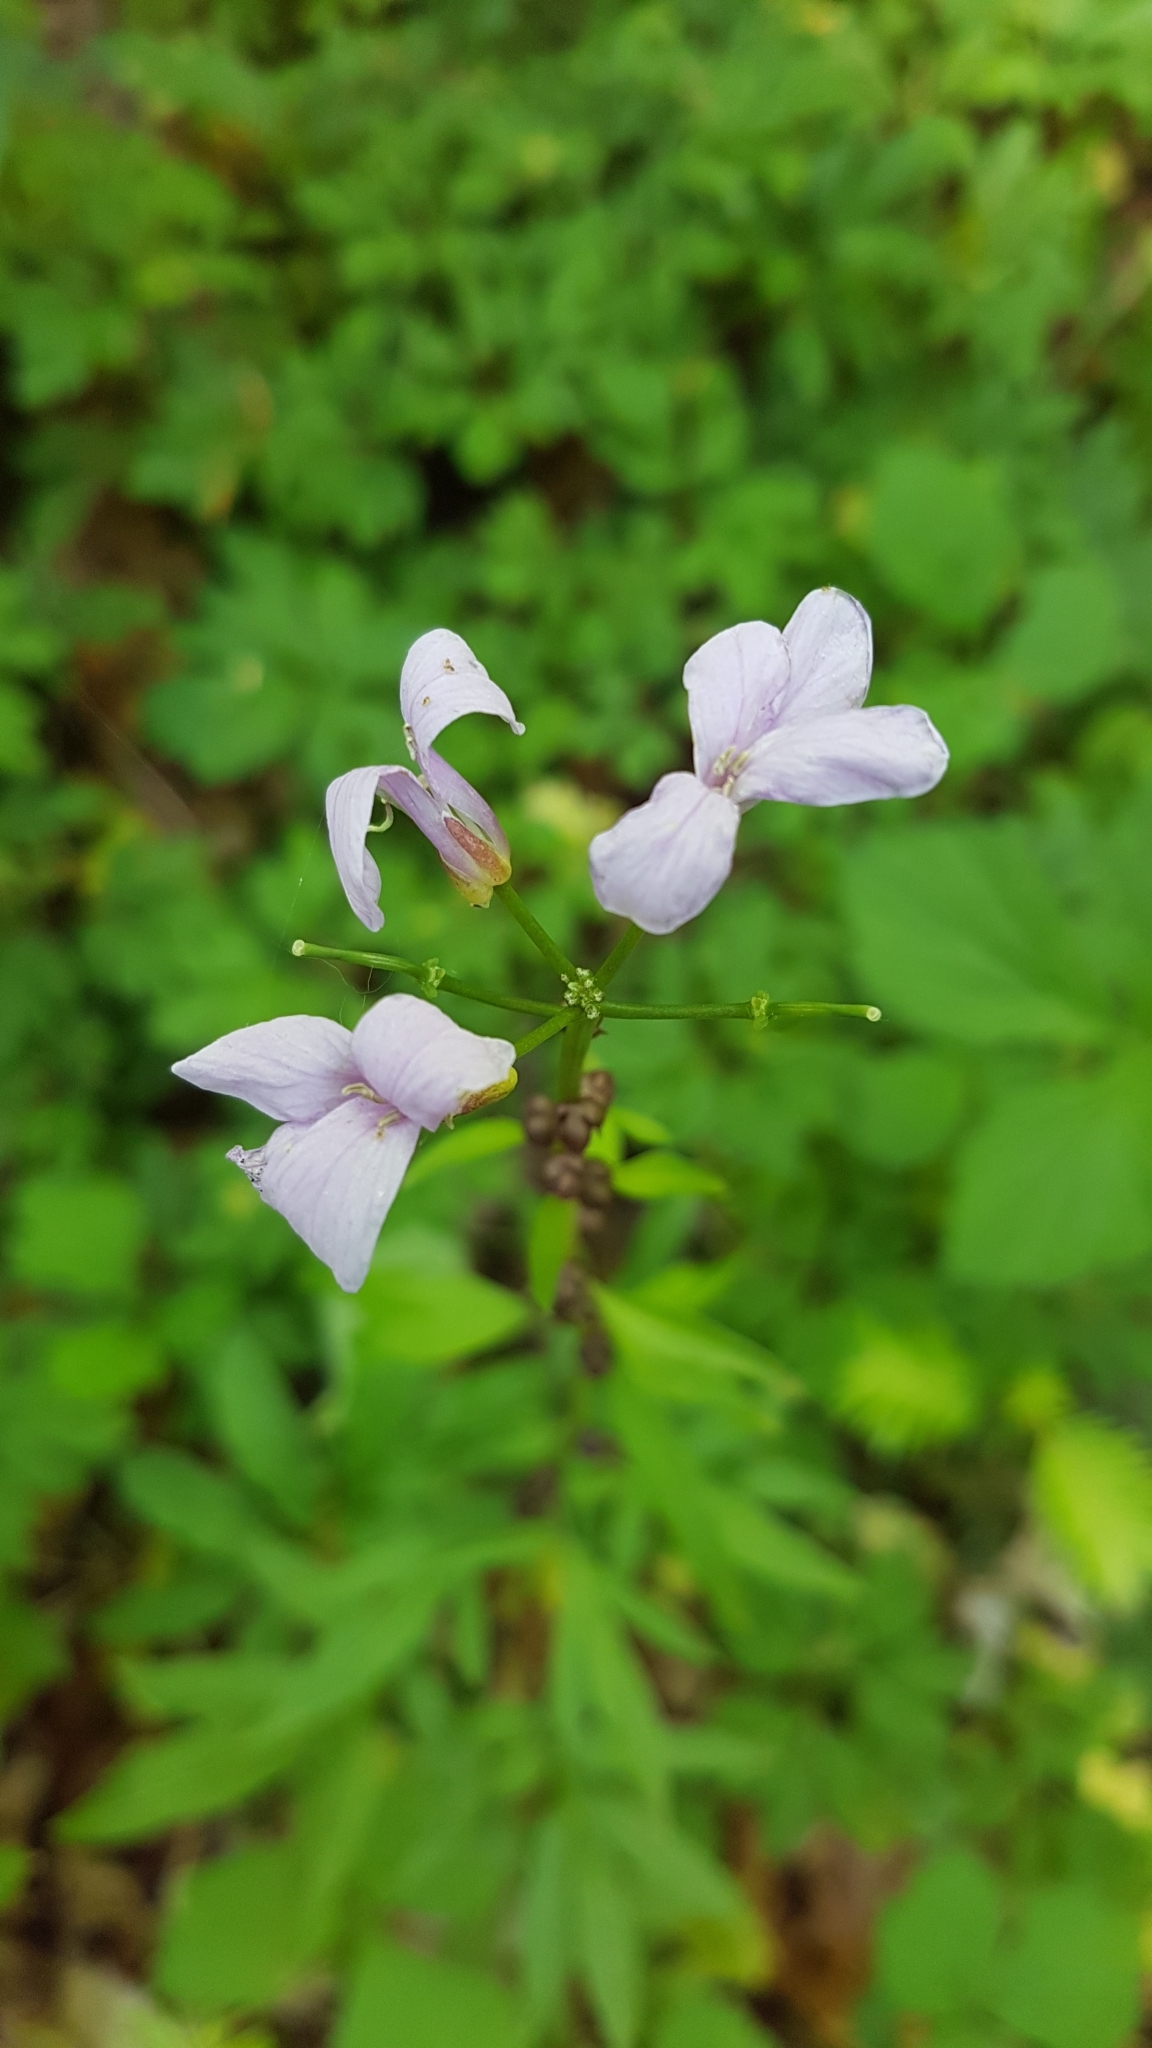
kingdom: Plantae
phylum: Tracheophyta
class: Magnoliopsida
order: Brassicales
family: Brassicaceae
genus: Cardamine
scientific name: Cardamine bulbifera
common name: Coralroot bittercress
